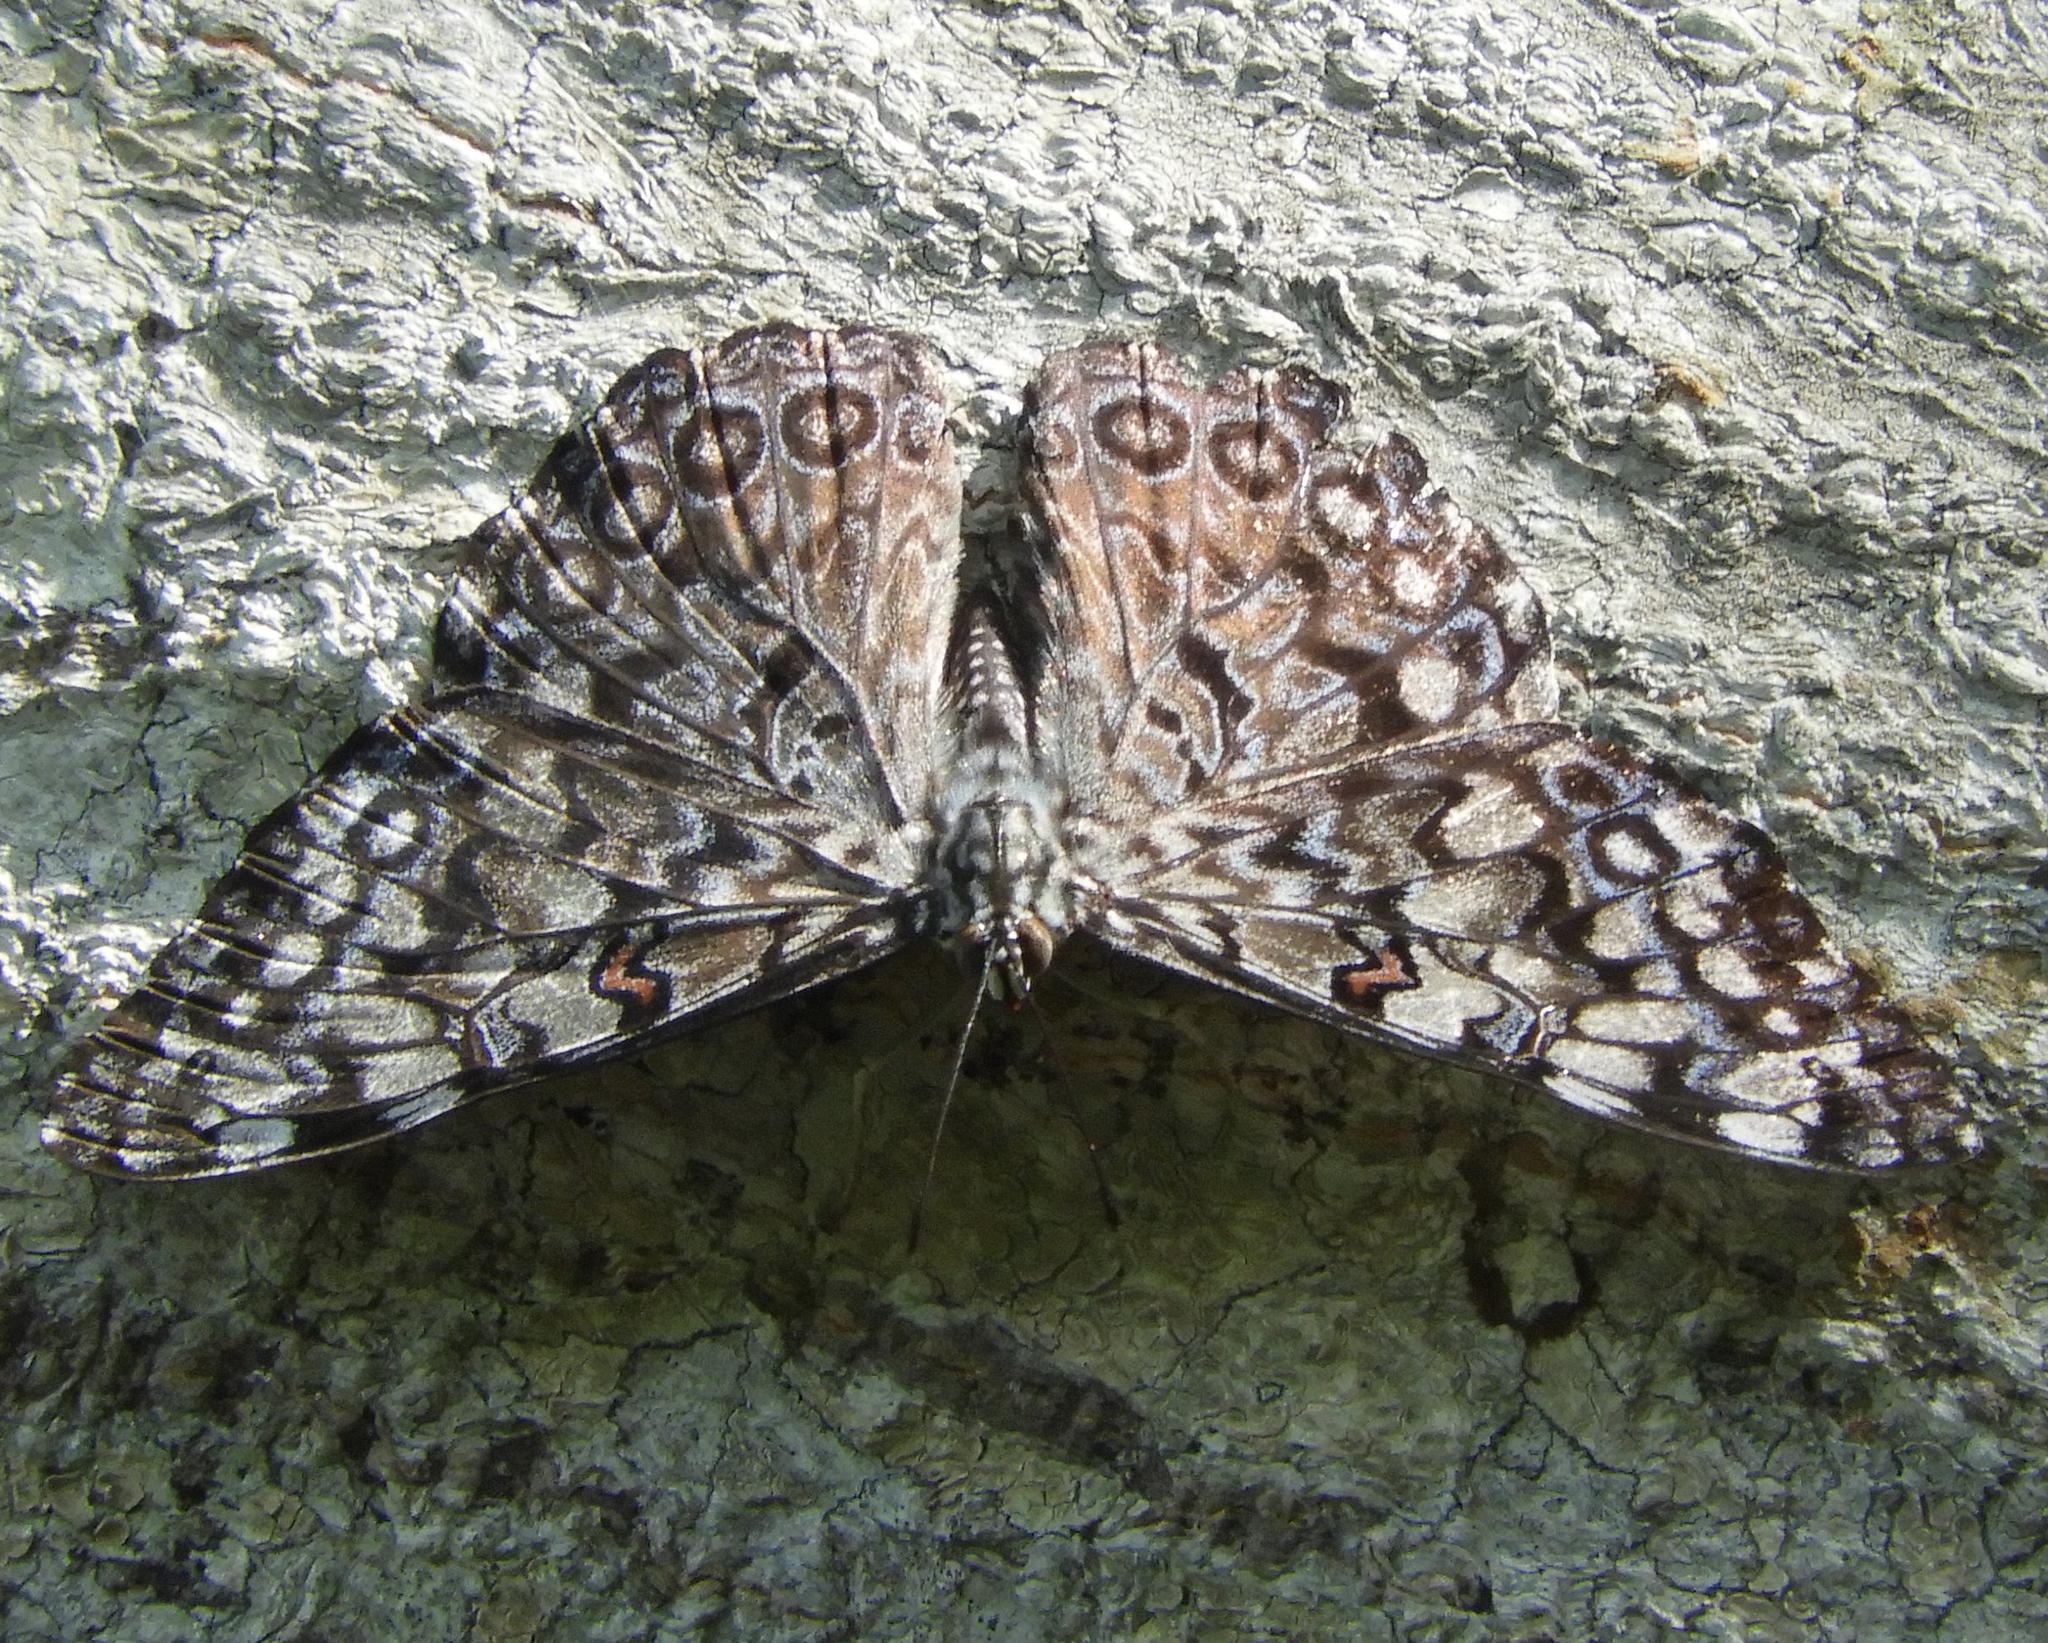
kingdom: Animalia
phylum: Arthropoda
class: Insecta
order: Lepidoptera
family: Nymphalidae
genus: Hamadryas
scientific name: Hamadryas guatemalena
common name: Guatemalan cracker
